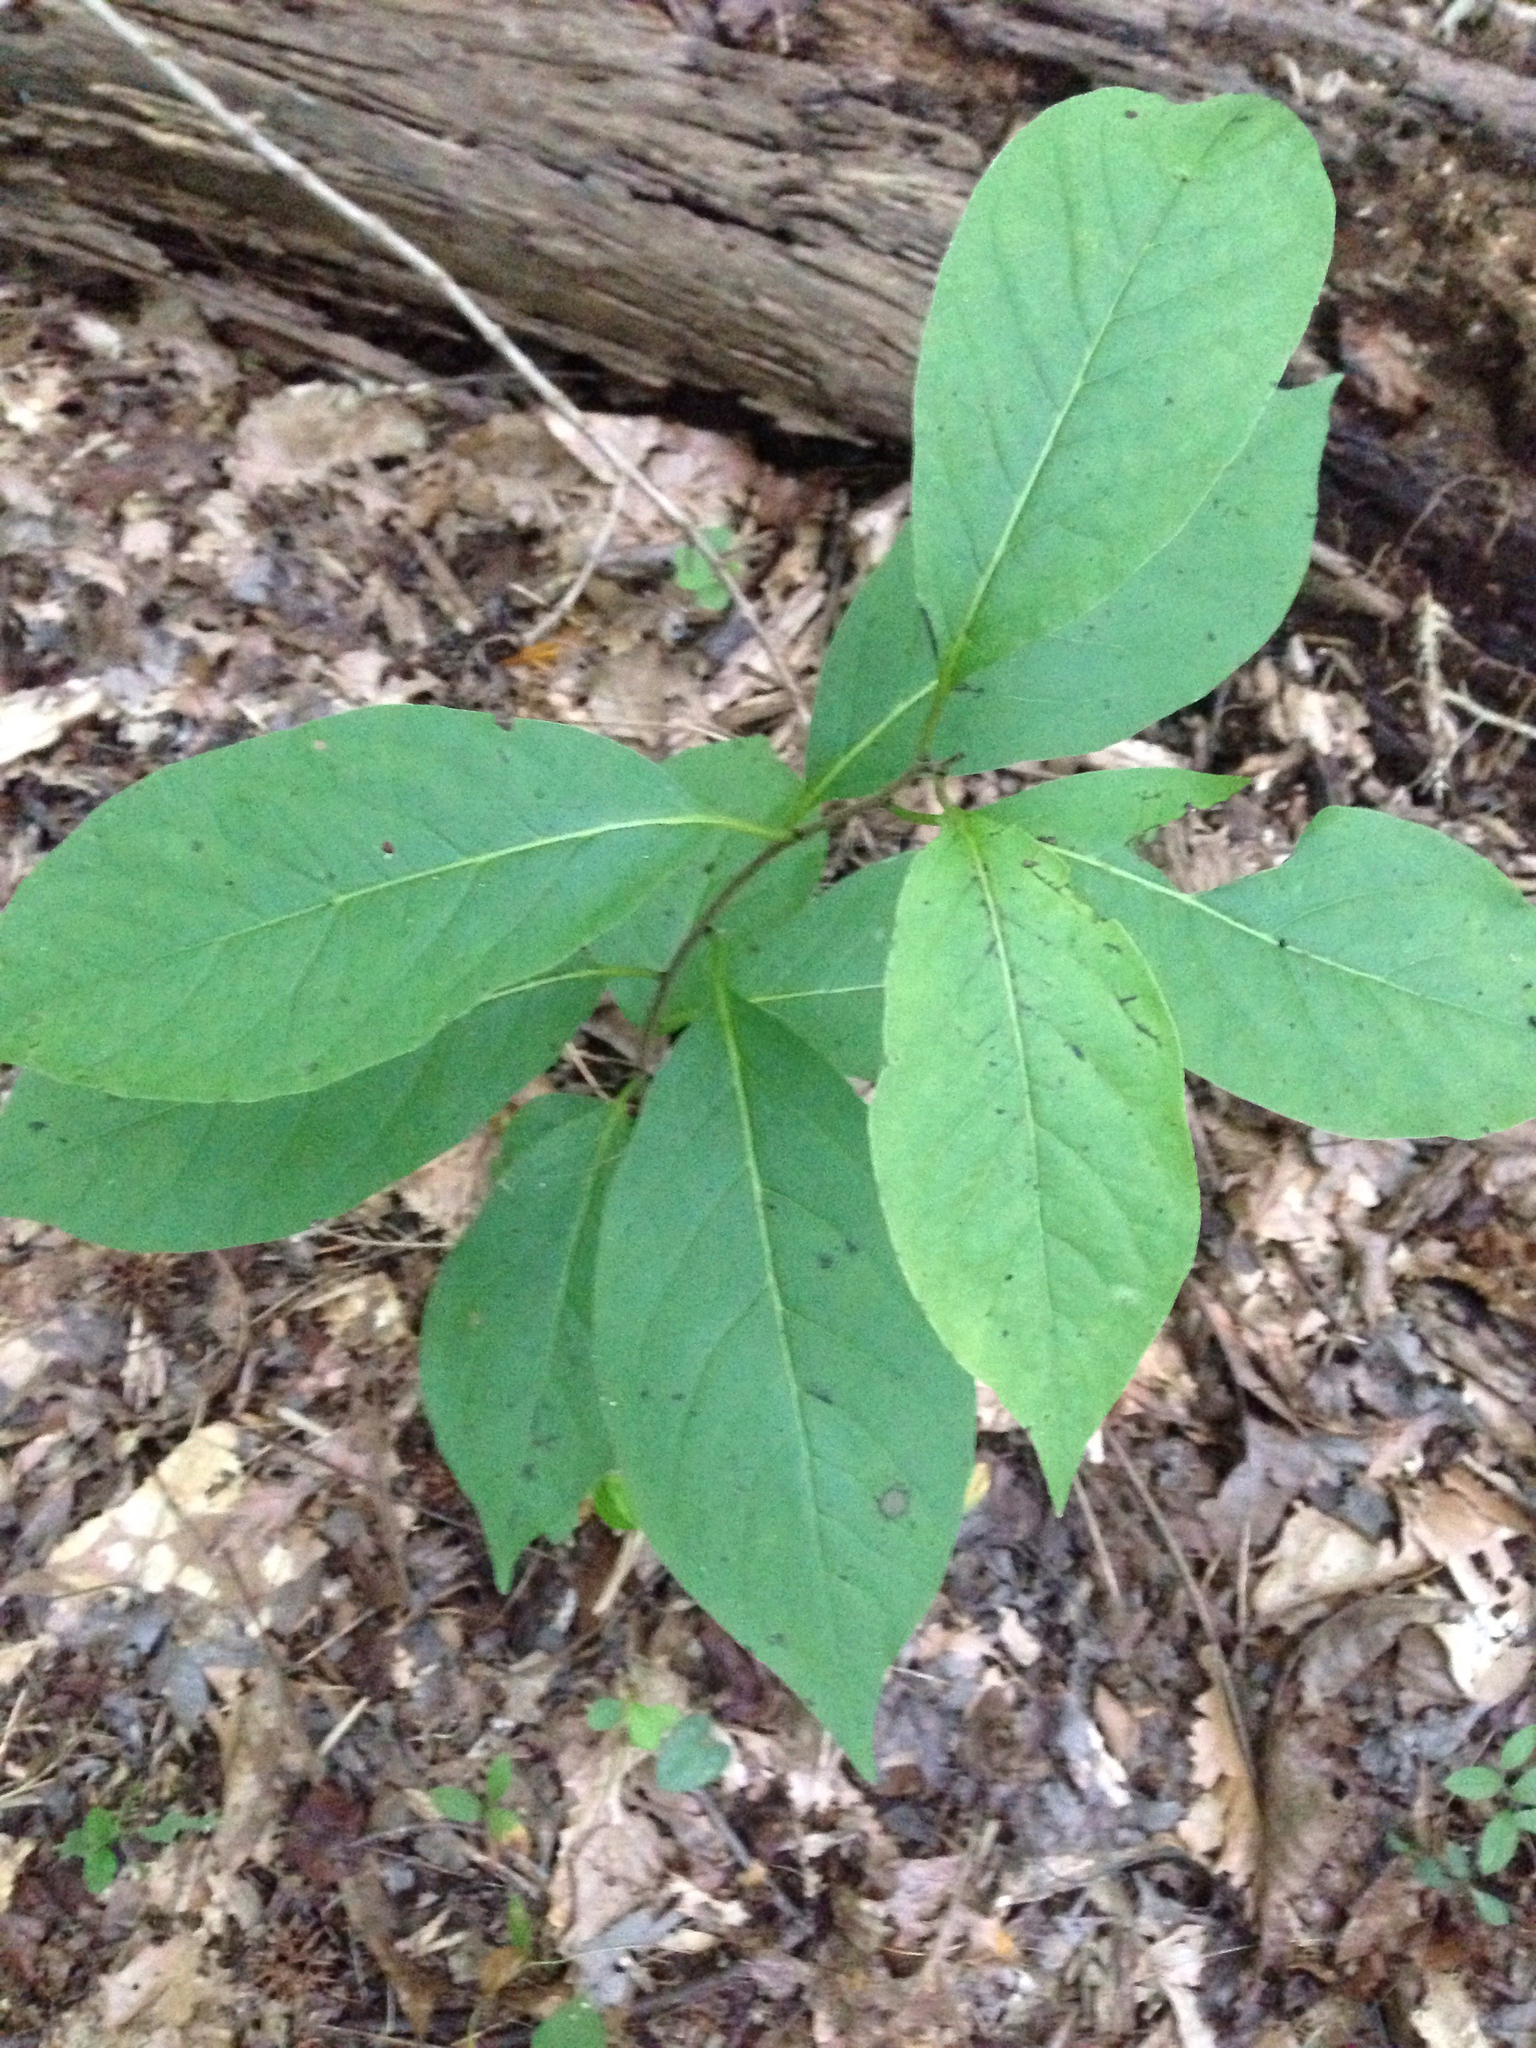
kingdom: Plantae
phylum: Tracheophyta
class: Magnoliopsida
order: Ericales
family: Ebenaceae
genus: Diospyros
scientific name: Diospyros virginiana
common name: Persimmon
